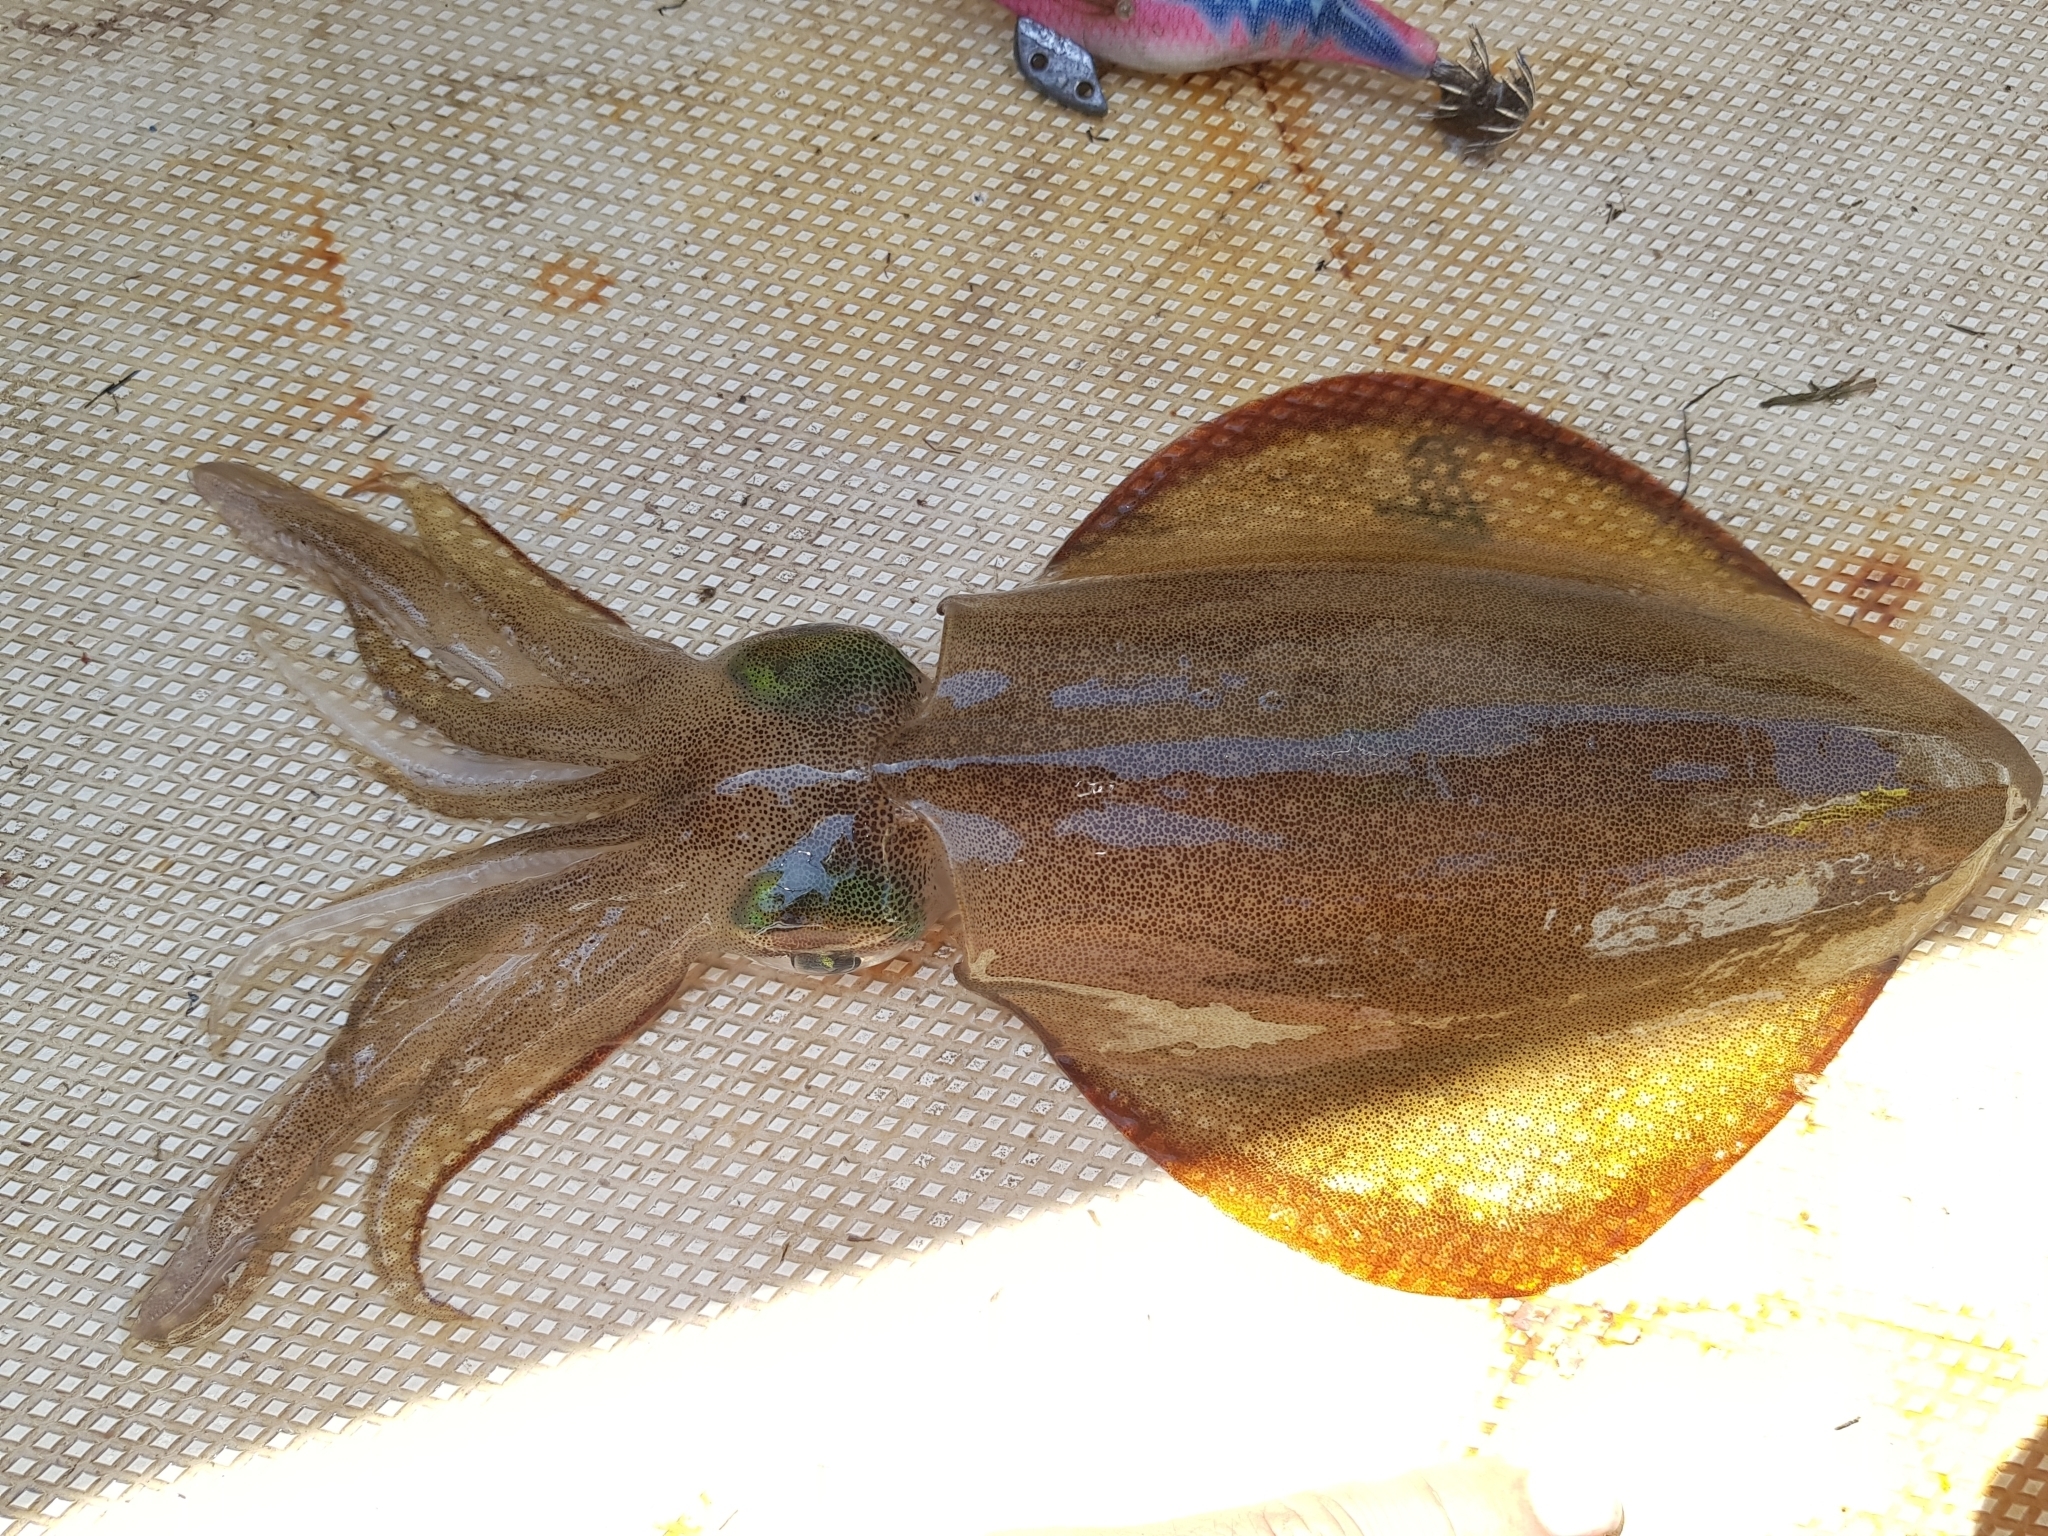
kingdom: Animalia
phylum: Mollusca
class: Cephalopoda
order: Myopsida
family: Loliginidae
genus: Sepioteuthis
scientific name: Sepioteuthis australis
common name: Southern reef squid
